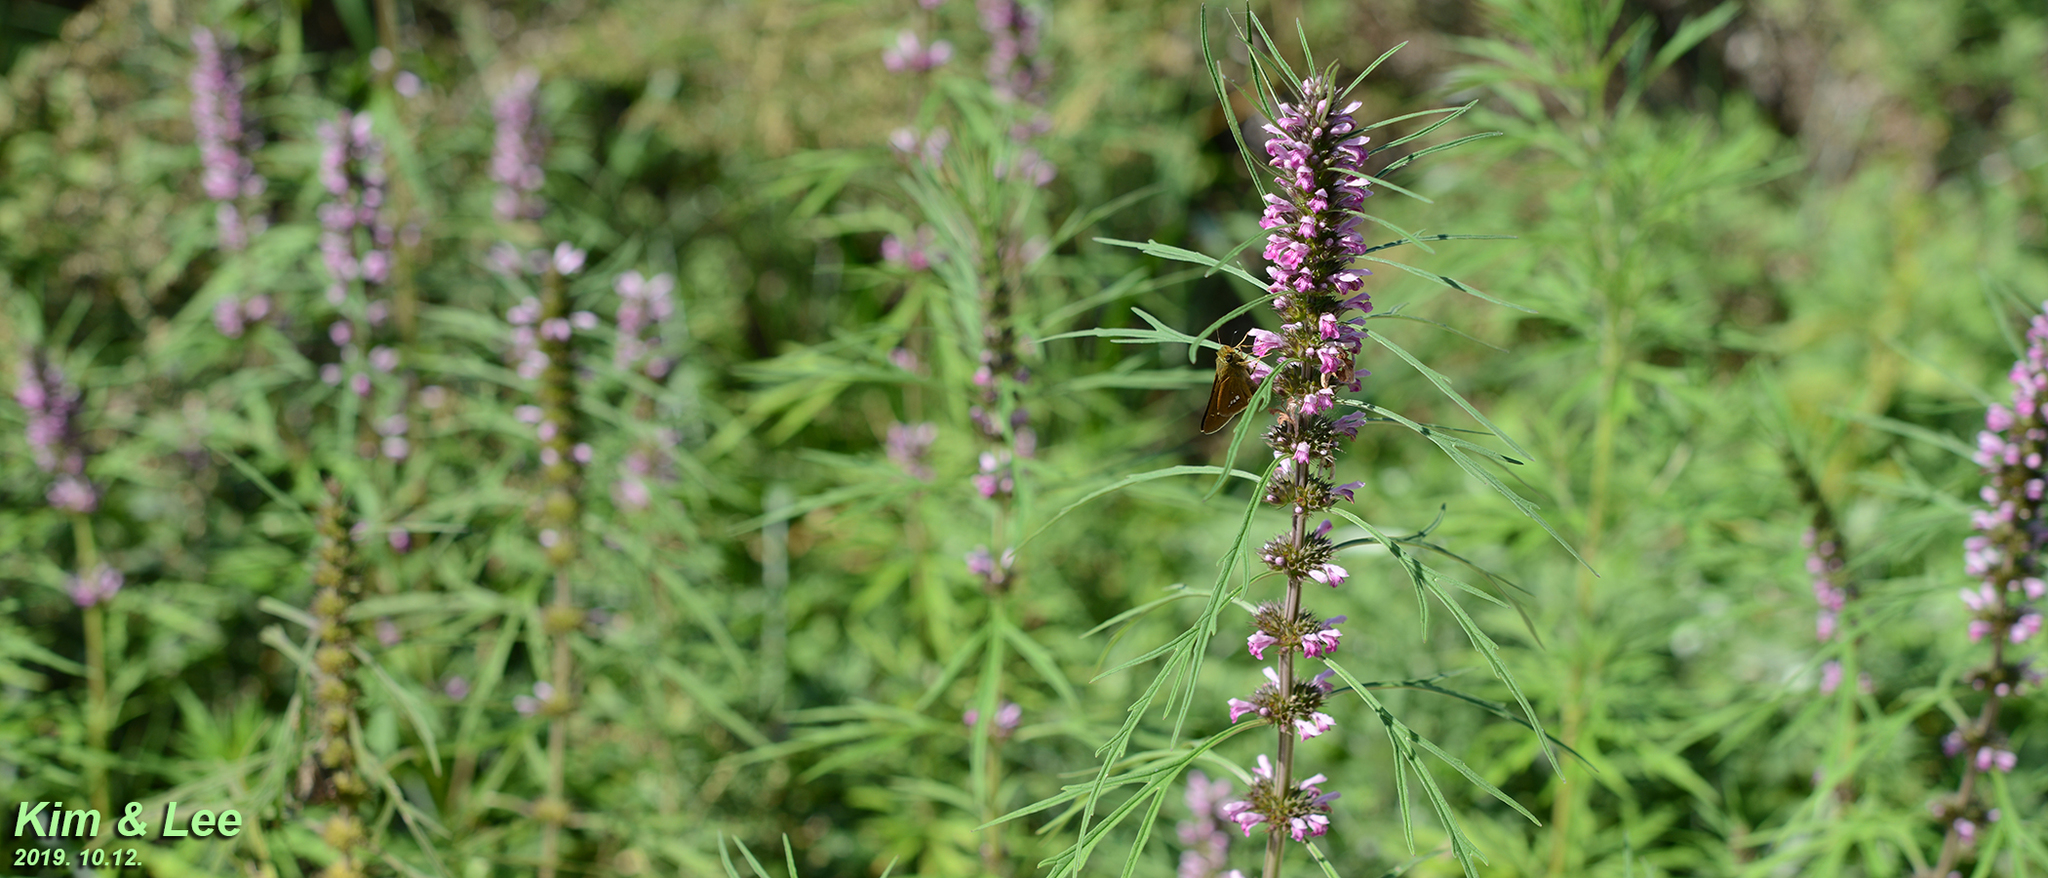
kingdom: Animalia
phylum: Arthropoda
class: Insecta
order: Lepidoptera
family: Hesperiidae
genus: Parnara
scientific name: Parnara guttatus
